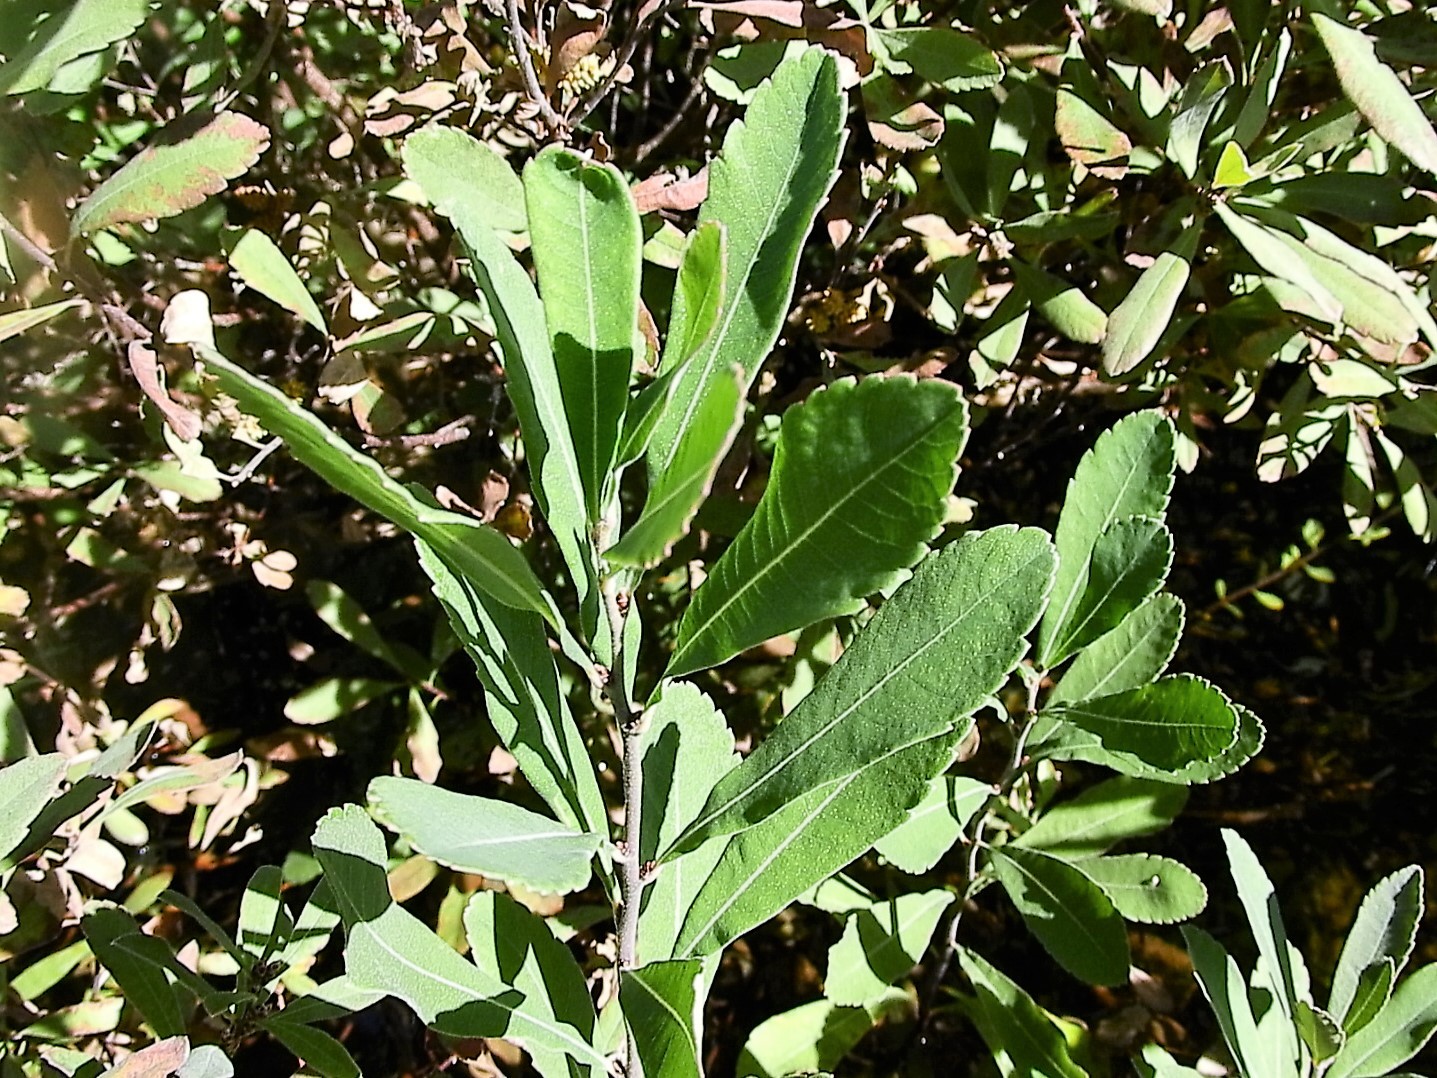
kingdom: Plantae
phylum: Tracheophyta
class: Magnoliopsida
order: Fagales
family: Myricaceae
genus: Myrica
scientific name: Myrica gale
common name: Sweet gale
